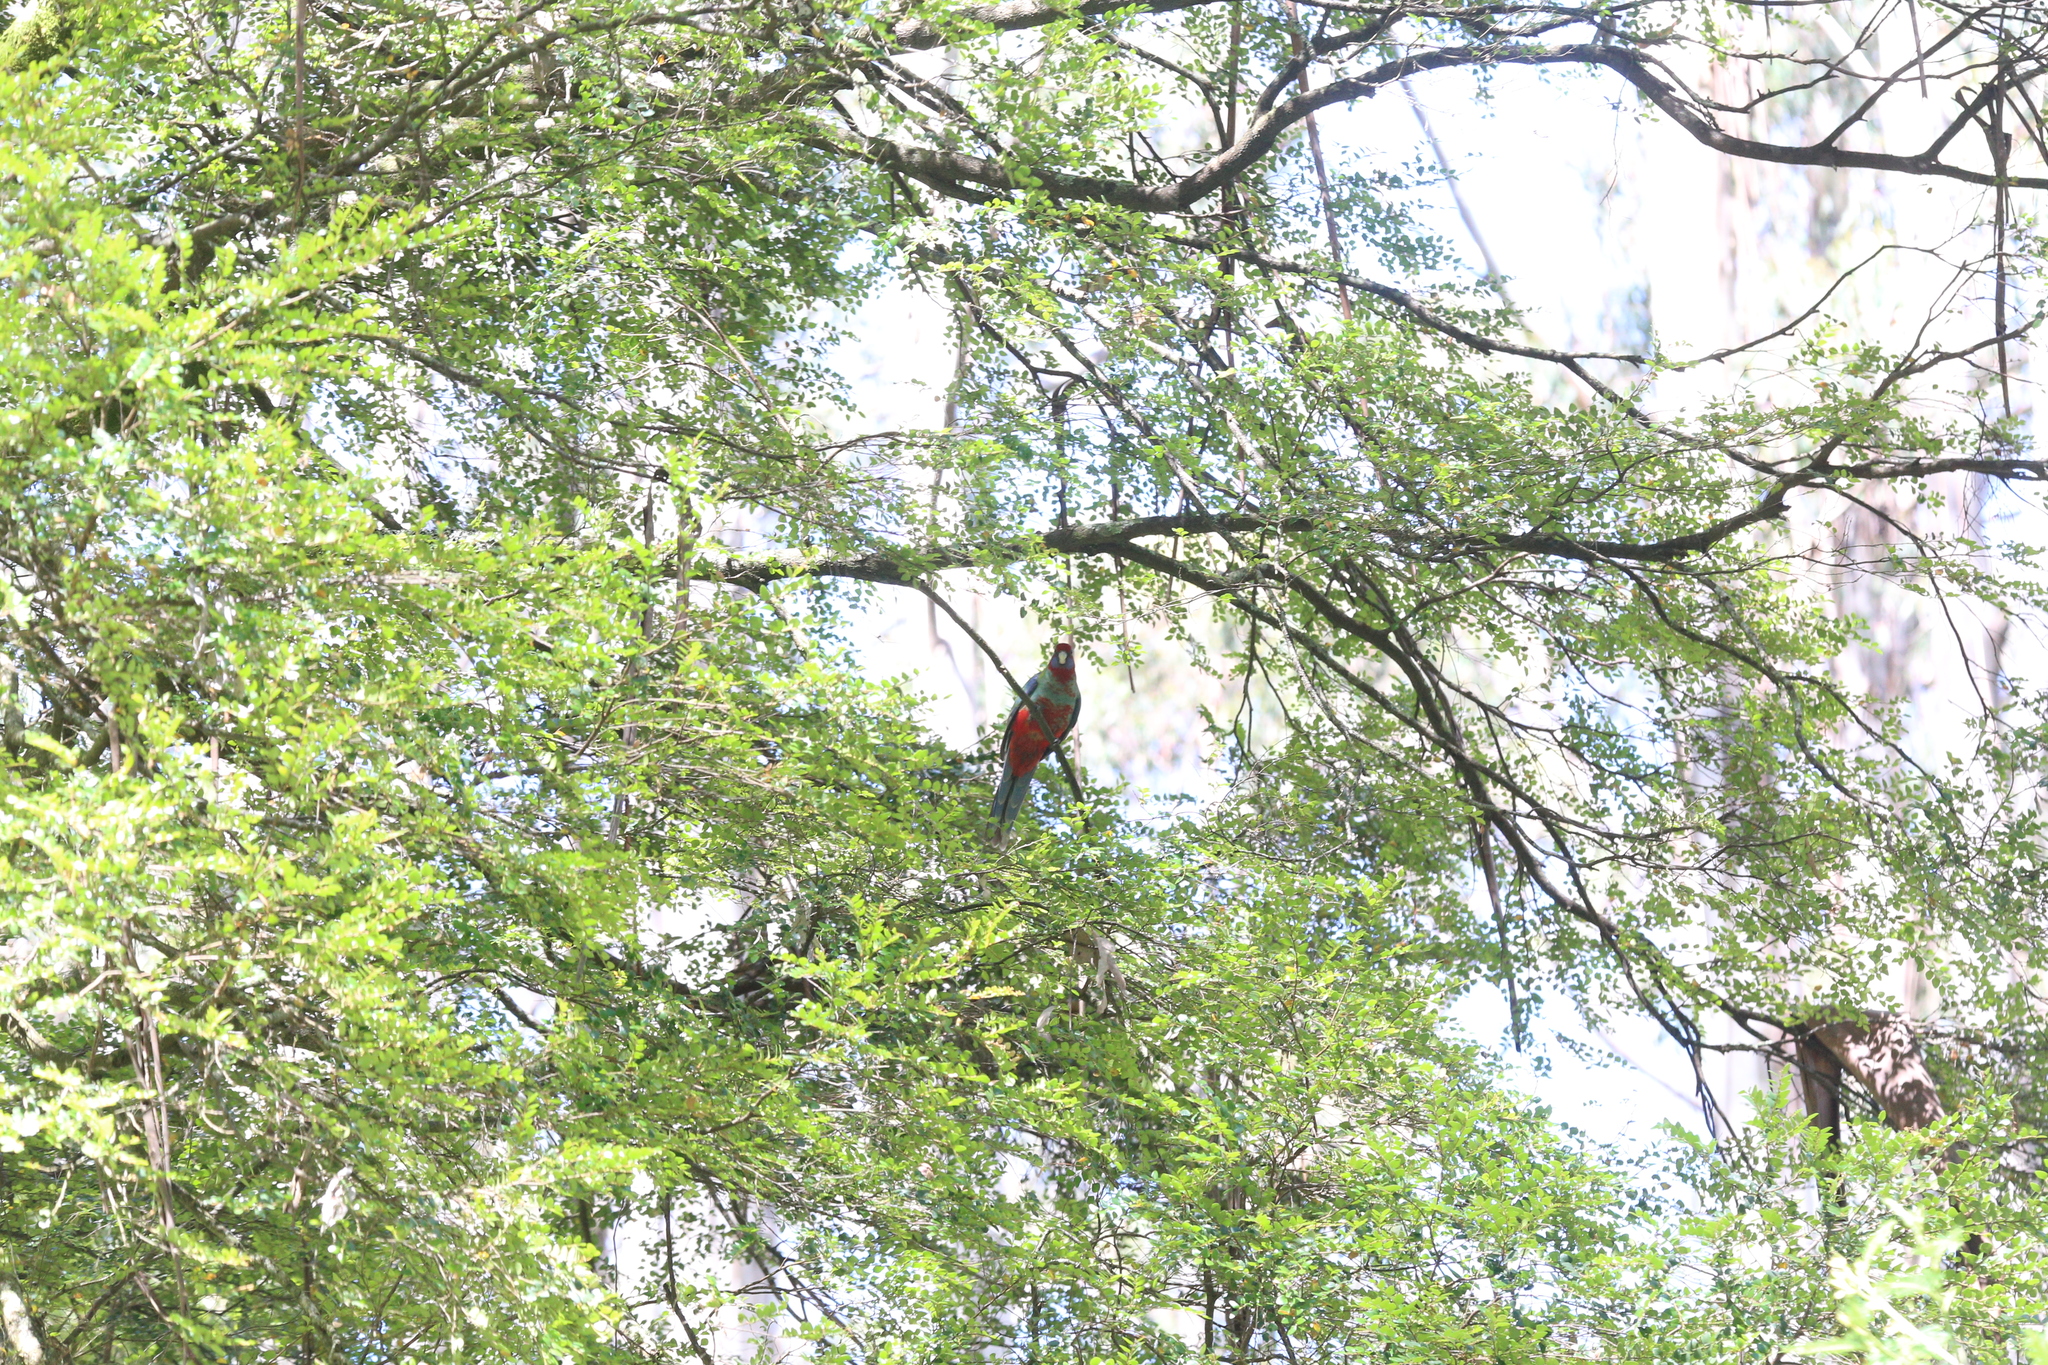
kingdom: Animalia
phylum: Chordata
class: Aves
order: Psittaciformes
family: Psittacidae
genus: Platycercus
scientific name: Platycercus elegans
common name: Crimson rosella
